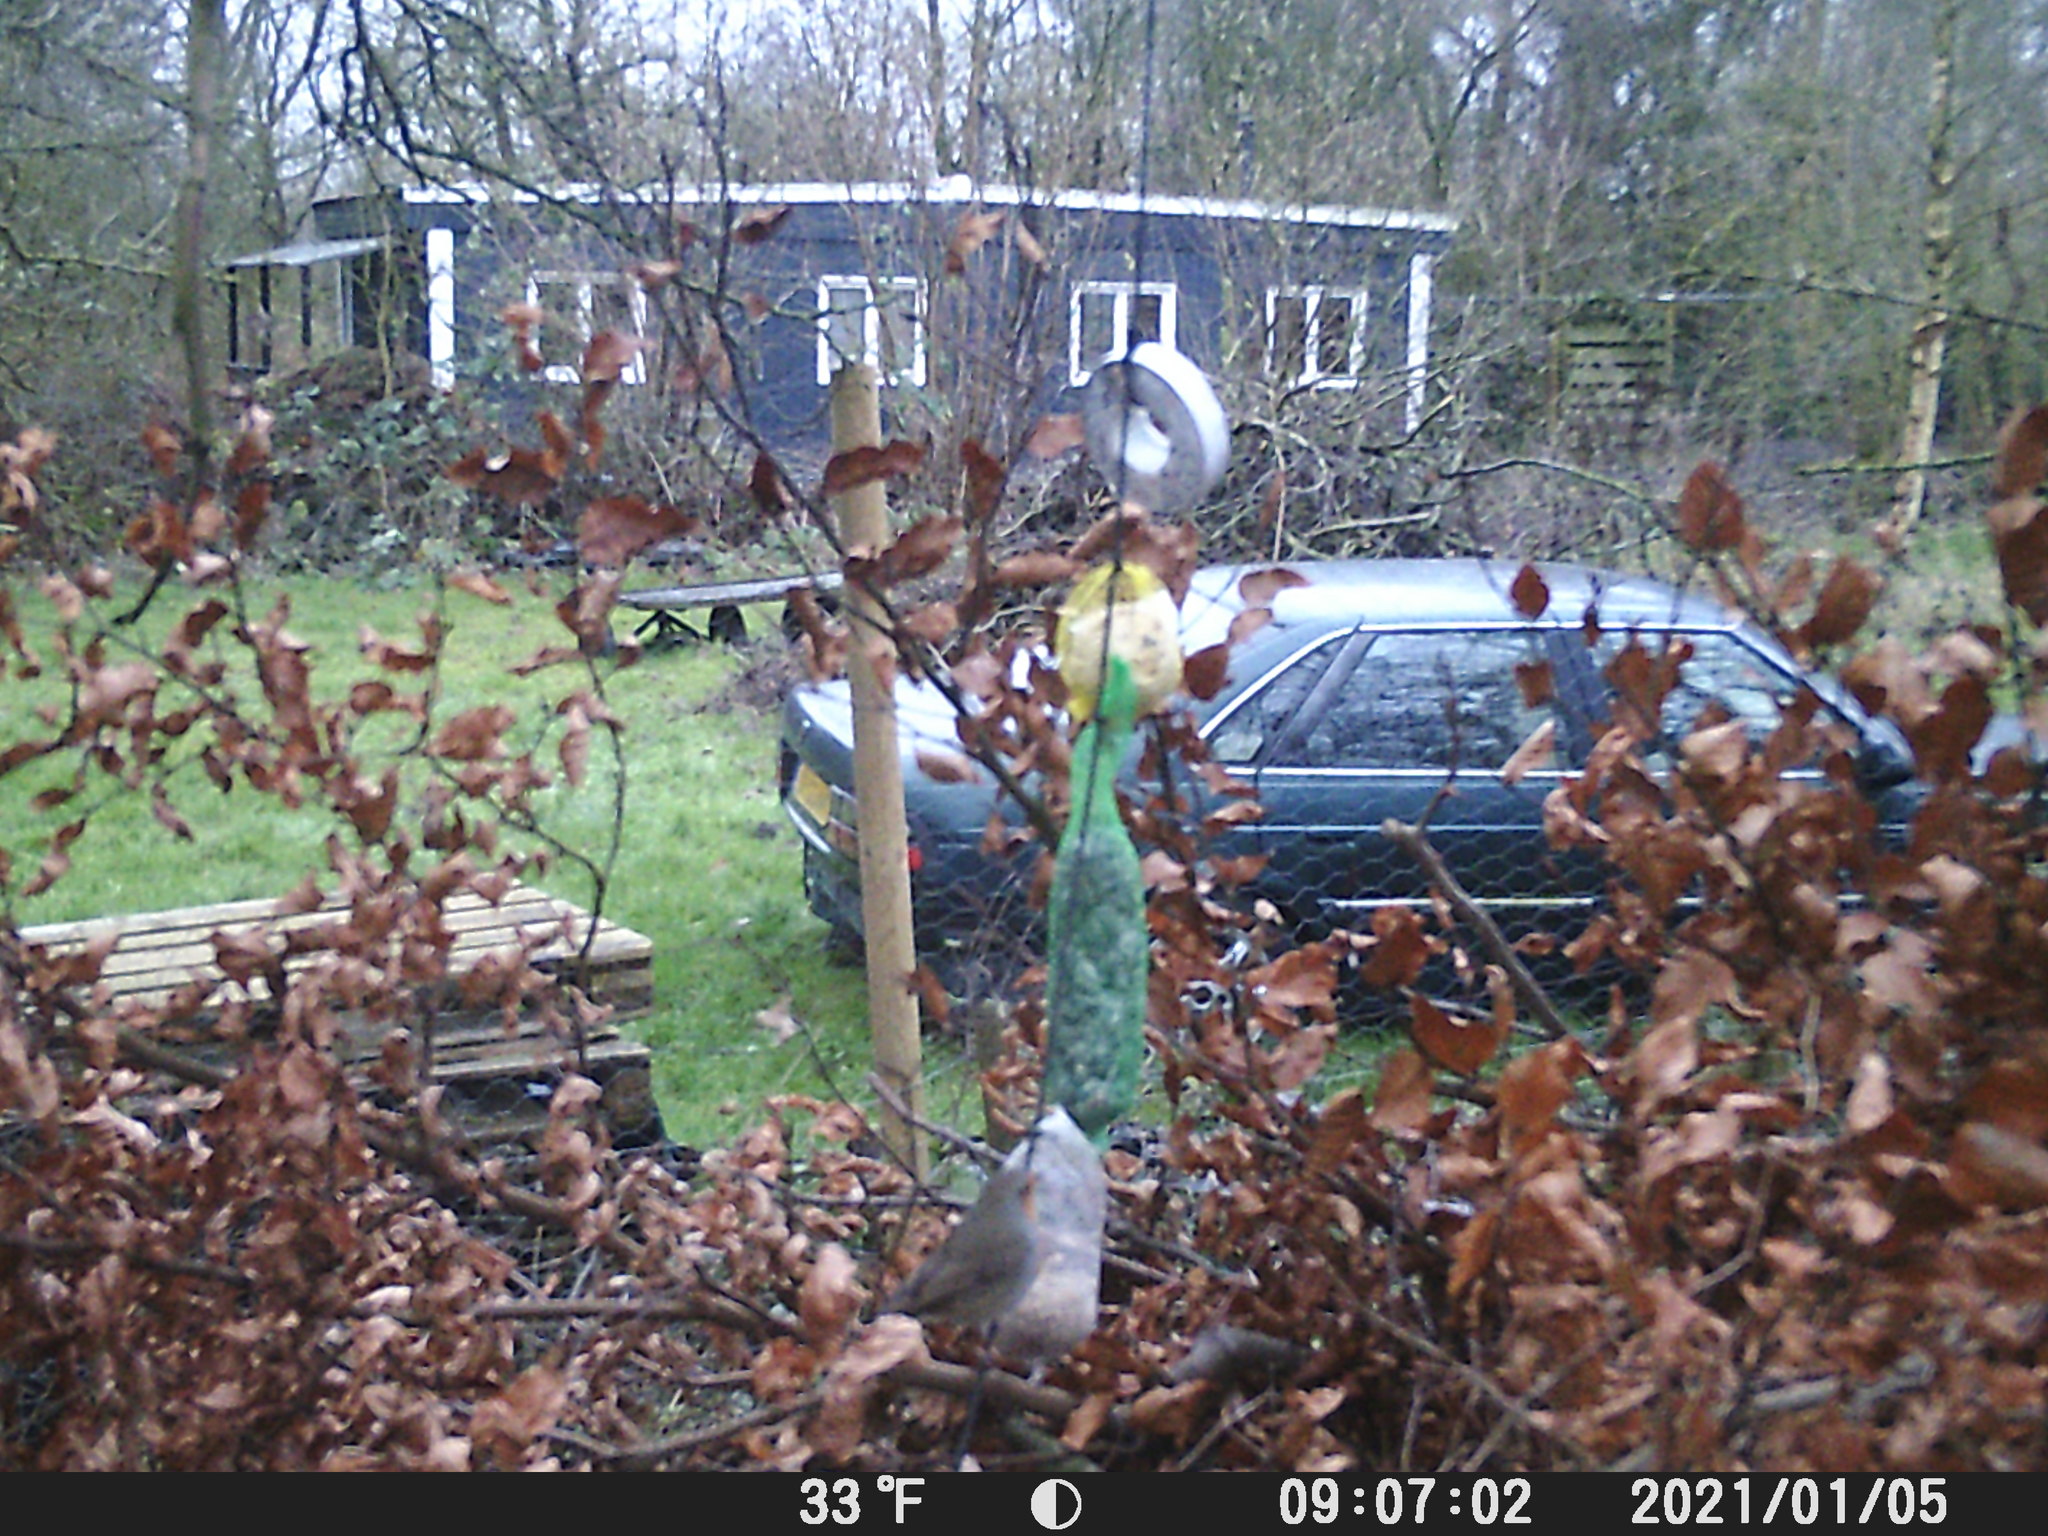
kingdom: Animalia
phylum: Chordata
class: Aves
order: Passeriformes
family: Muscicapidae
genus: Erithacus
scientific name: Erithacus rubecula
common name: European robin
